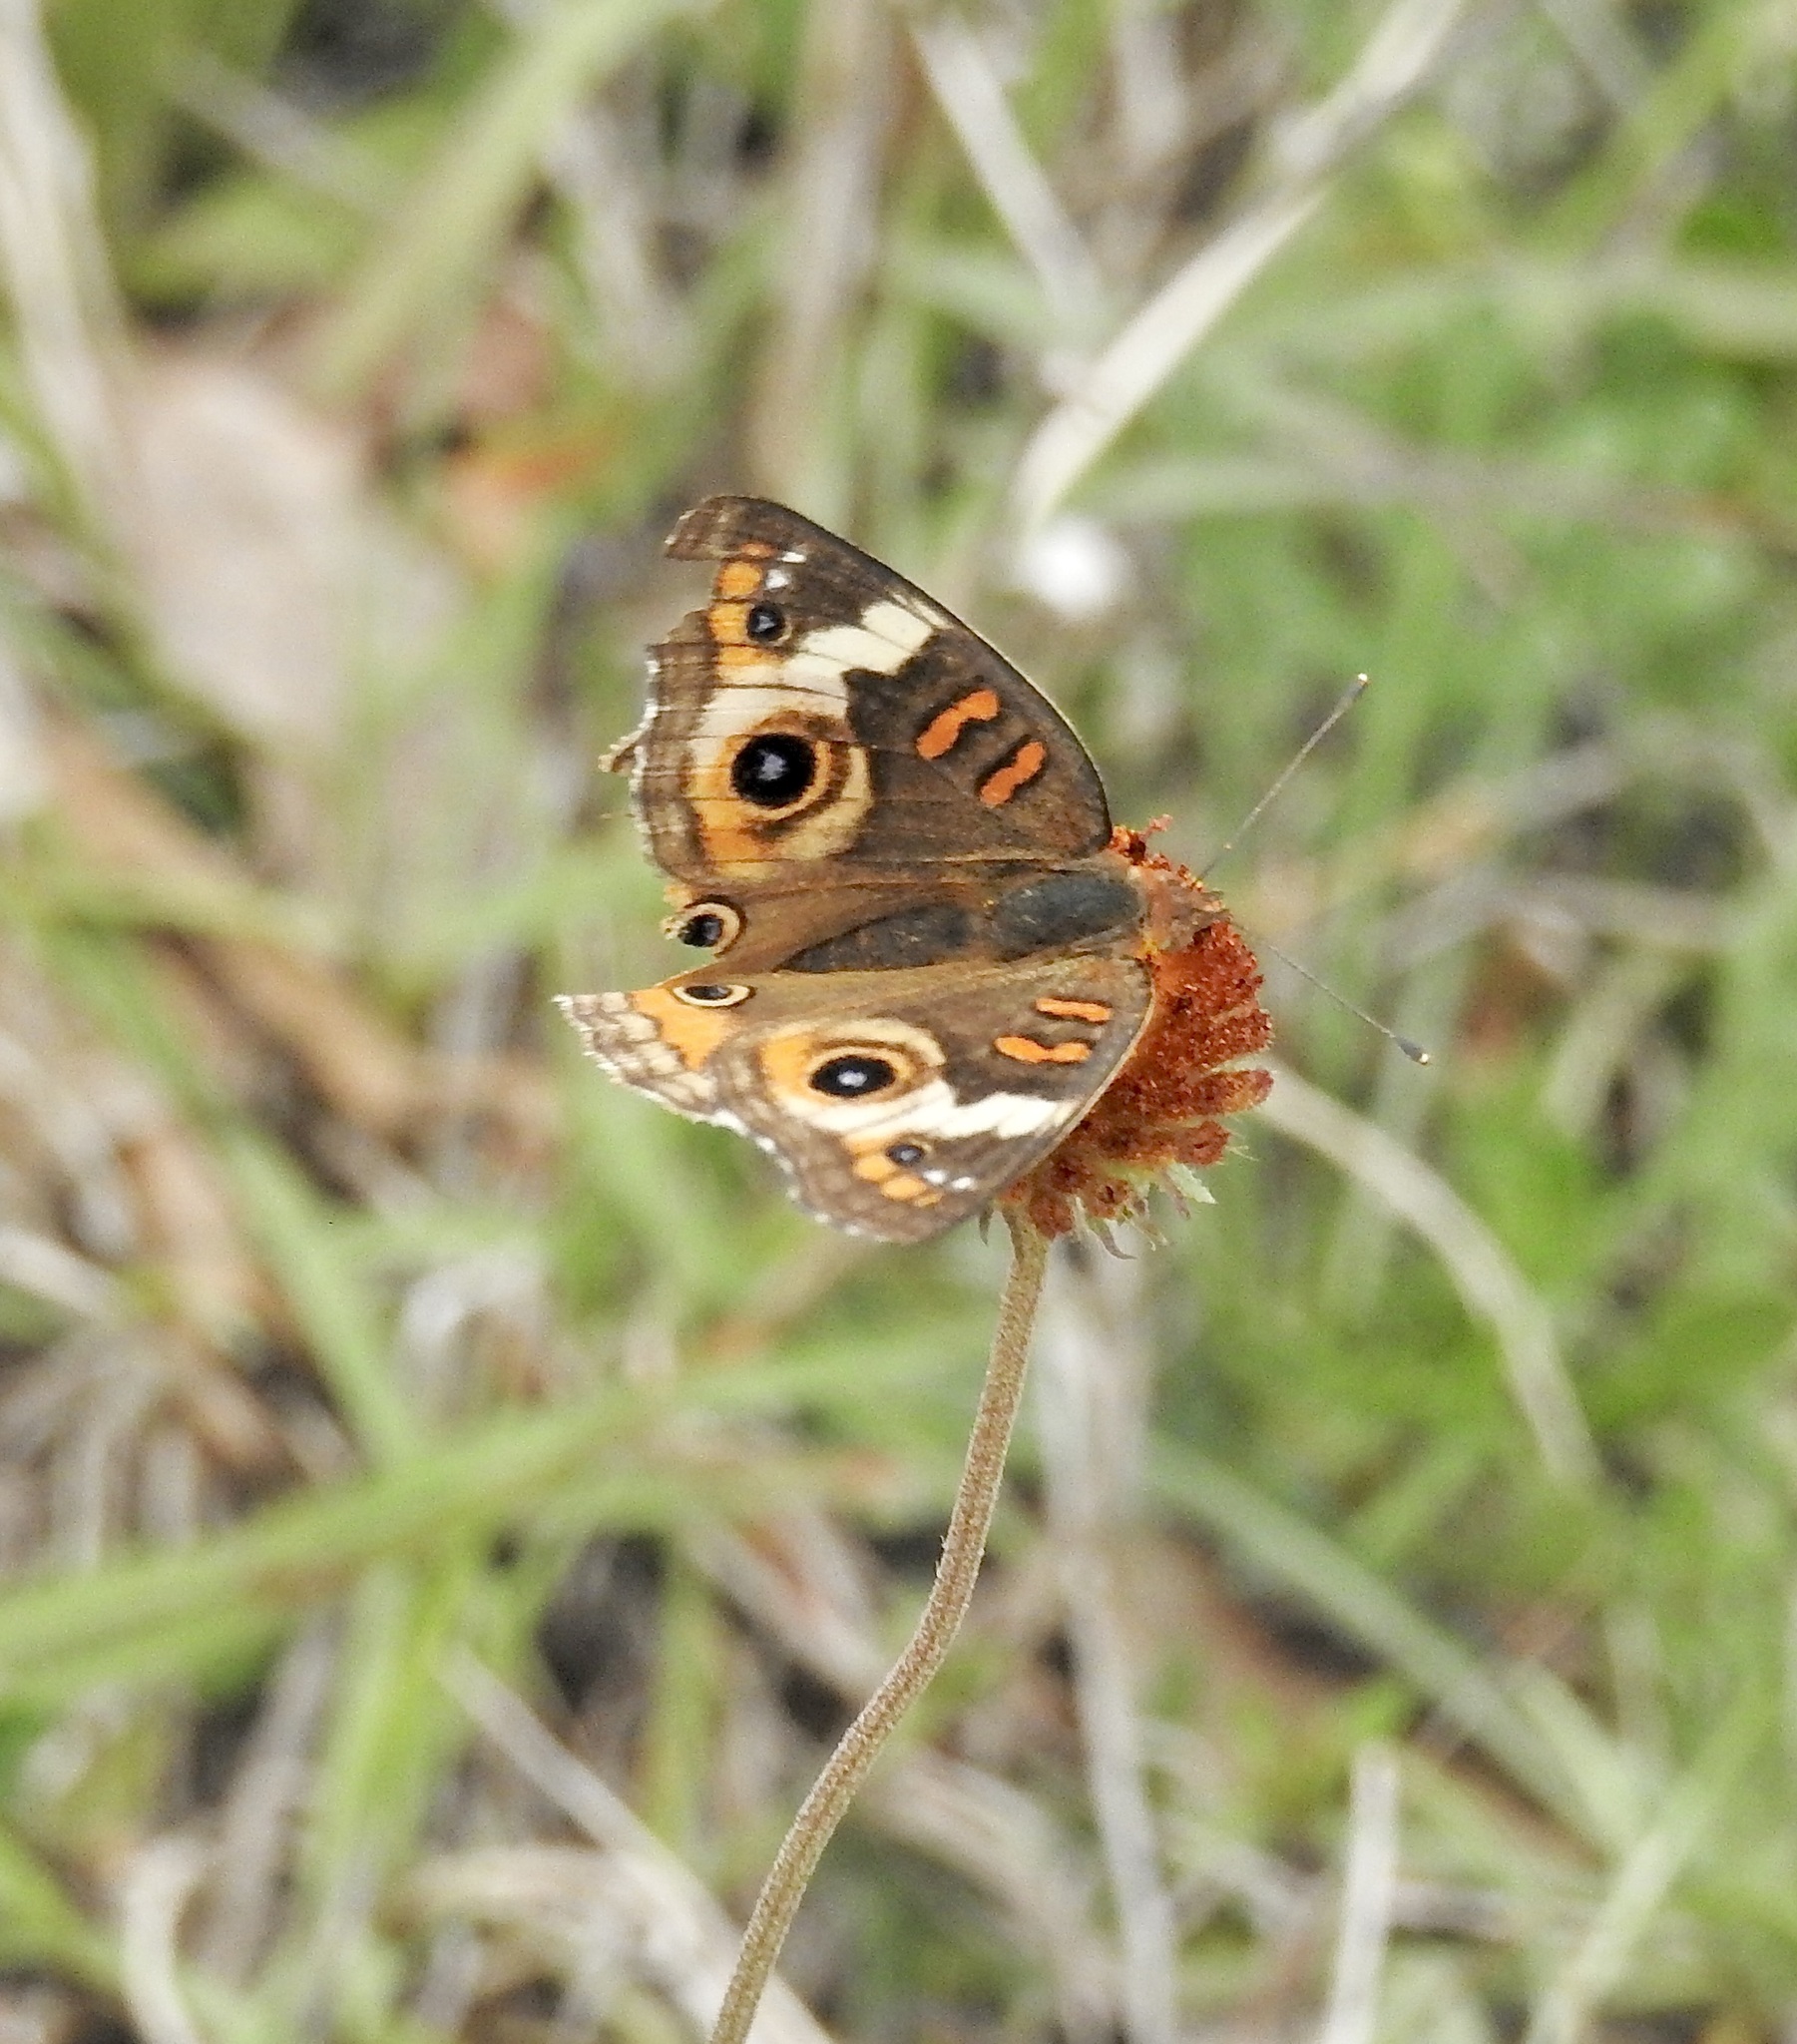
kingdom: Animalia
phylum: Arthropoda
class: Insecta
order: Lepidoptera
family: Nymphalidae
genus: Junonia
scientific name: Junonia coenia
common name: Common buckeye
